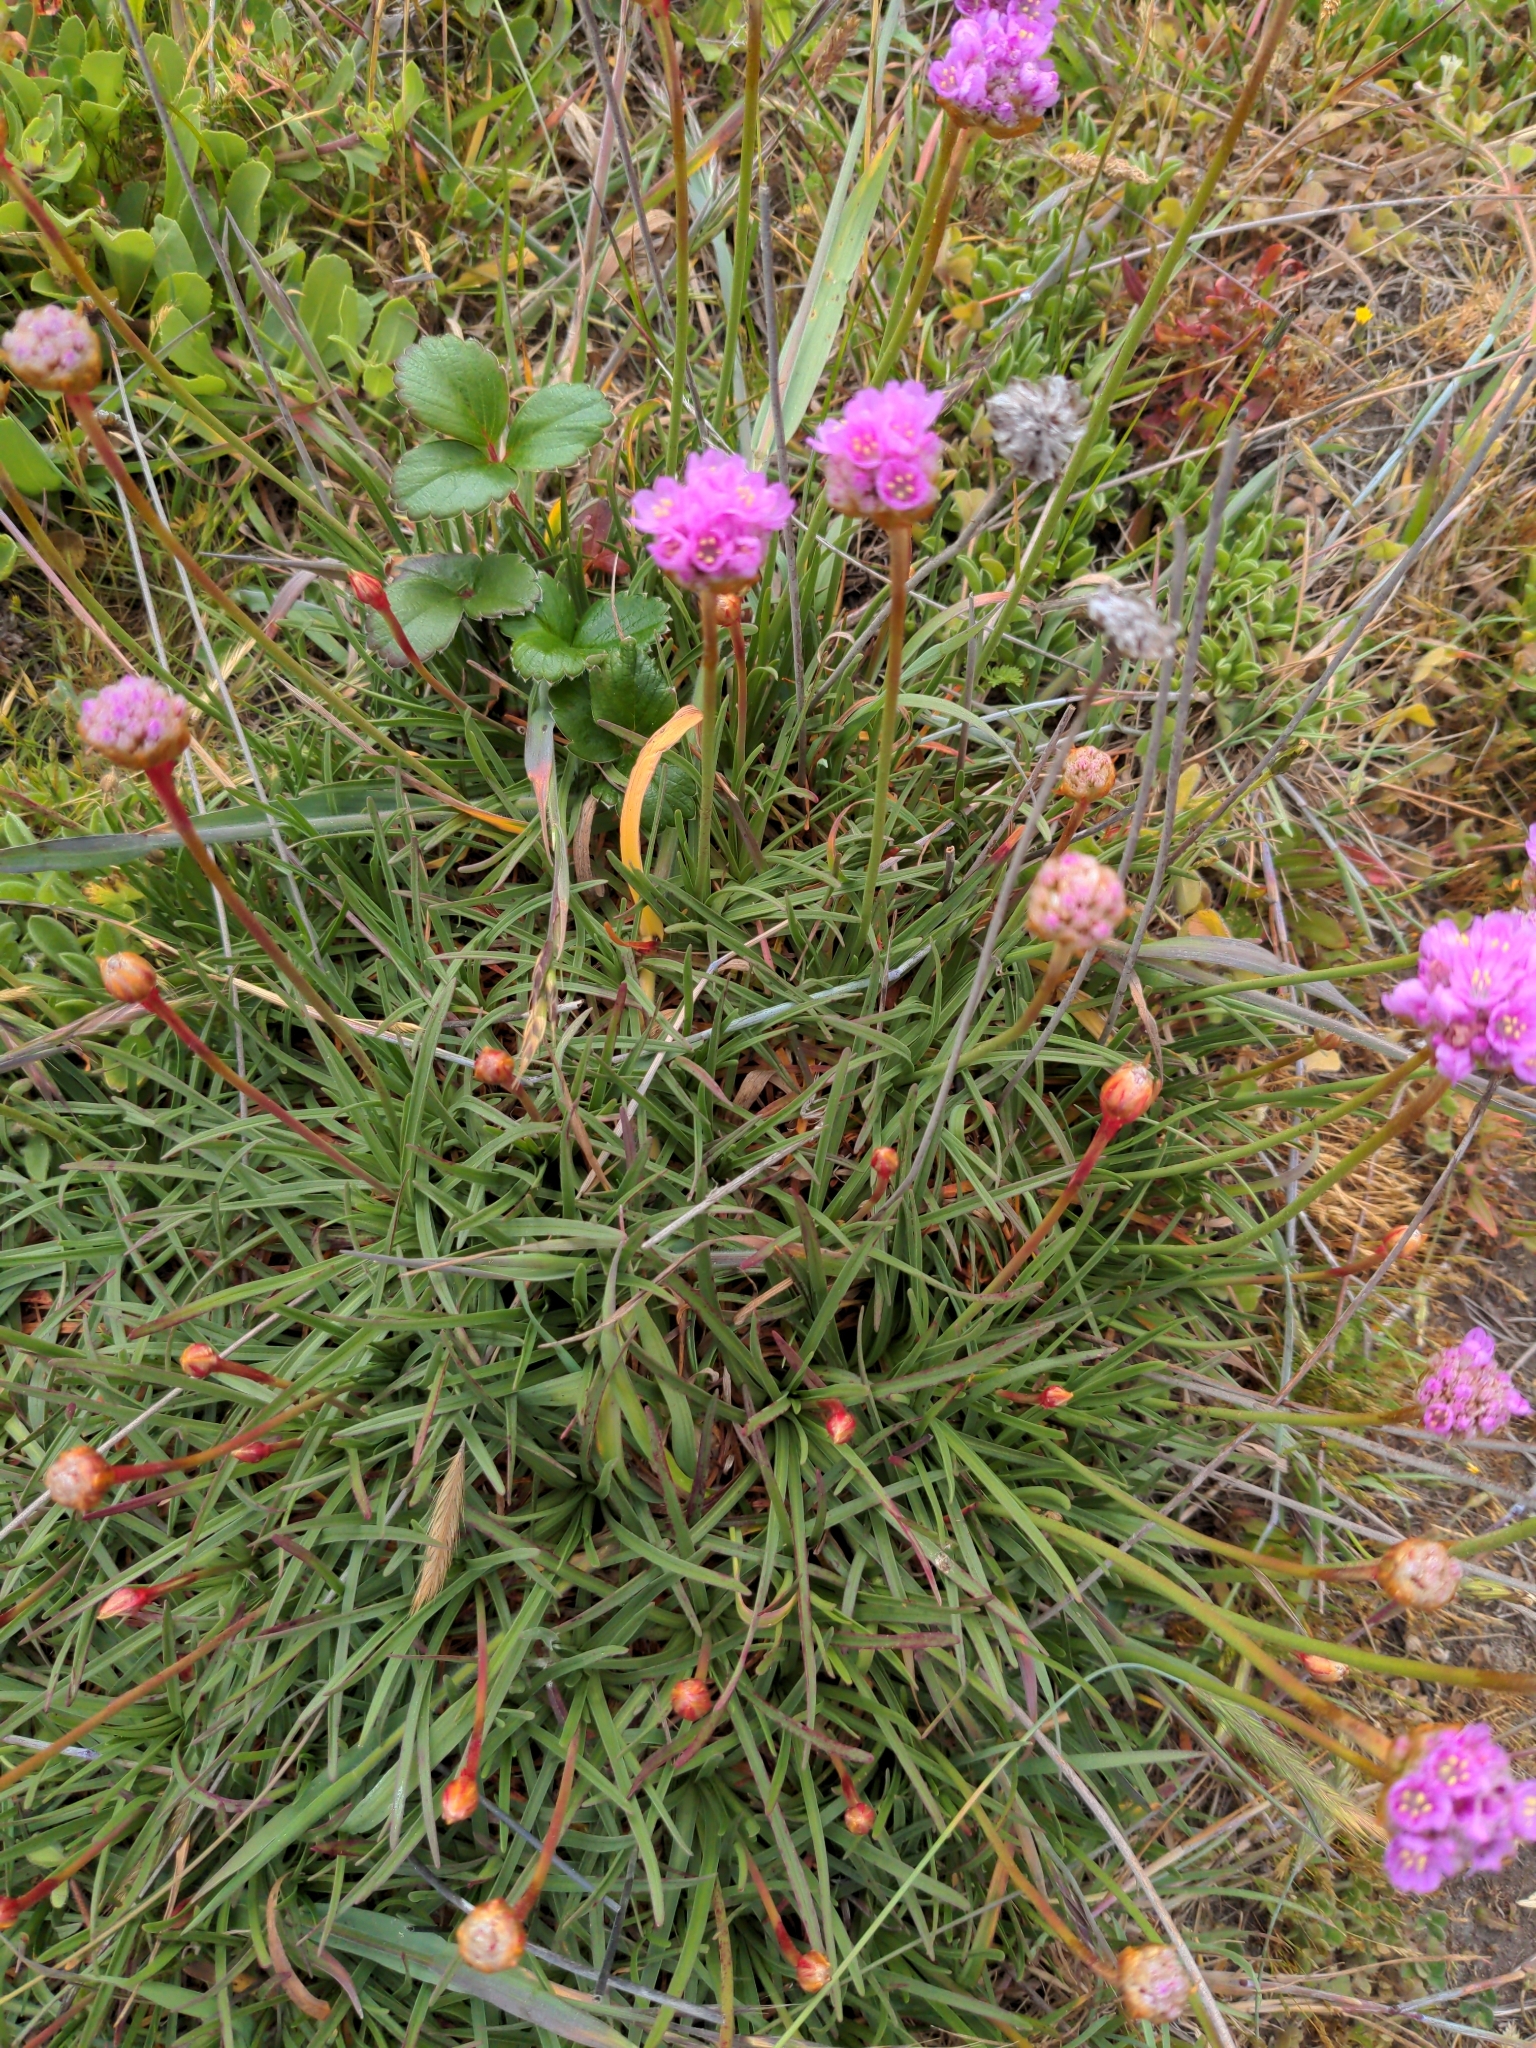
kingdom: Plantae
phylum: Tracheophyta
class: Magnoliopsida
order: Caryophyllales
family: Plumbaginaceae
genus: Armeria
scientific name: Armeria maritima
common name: Thrift
